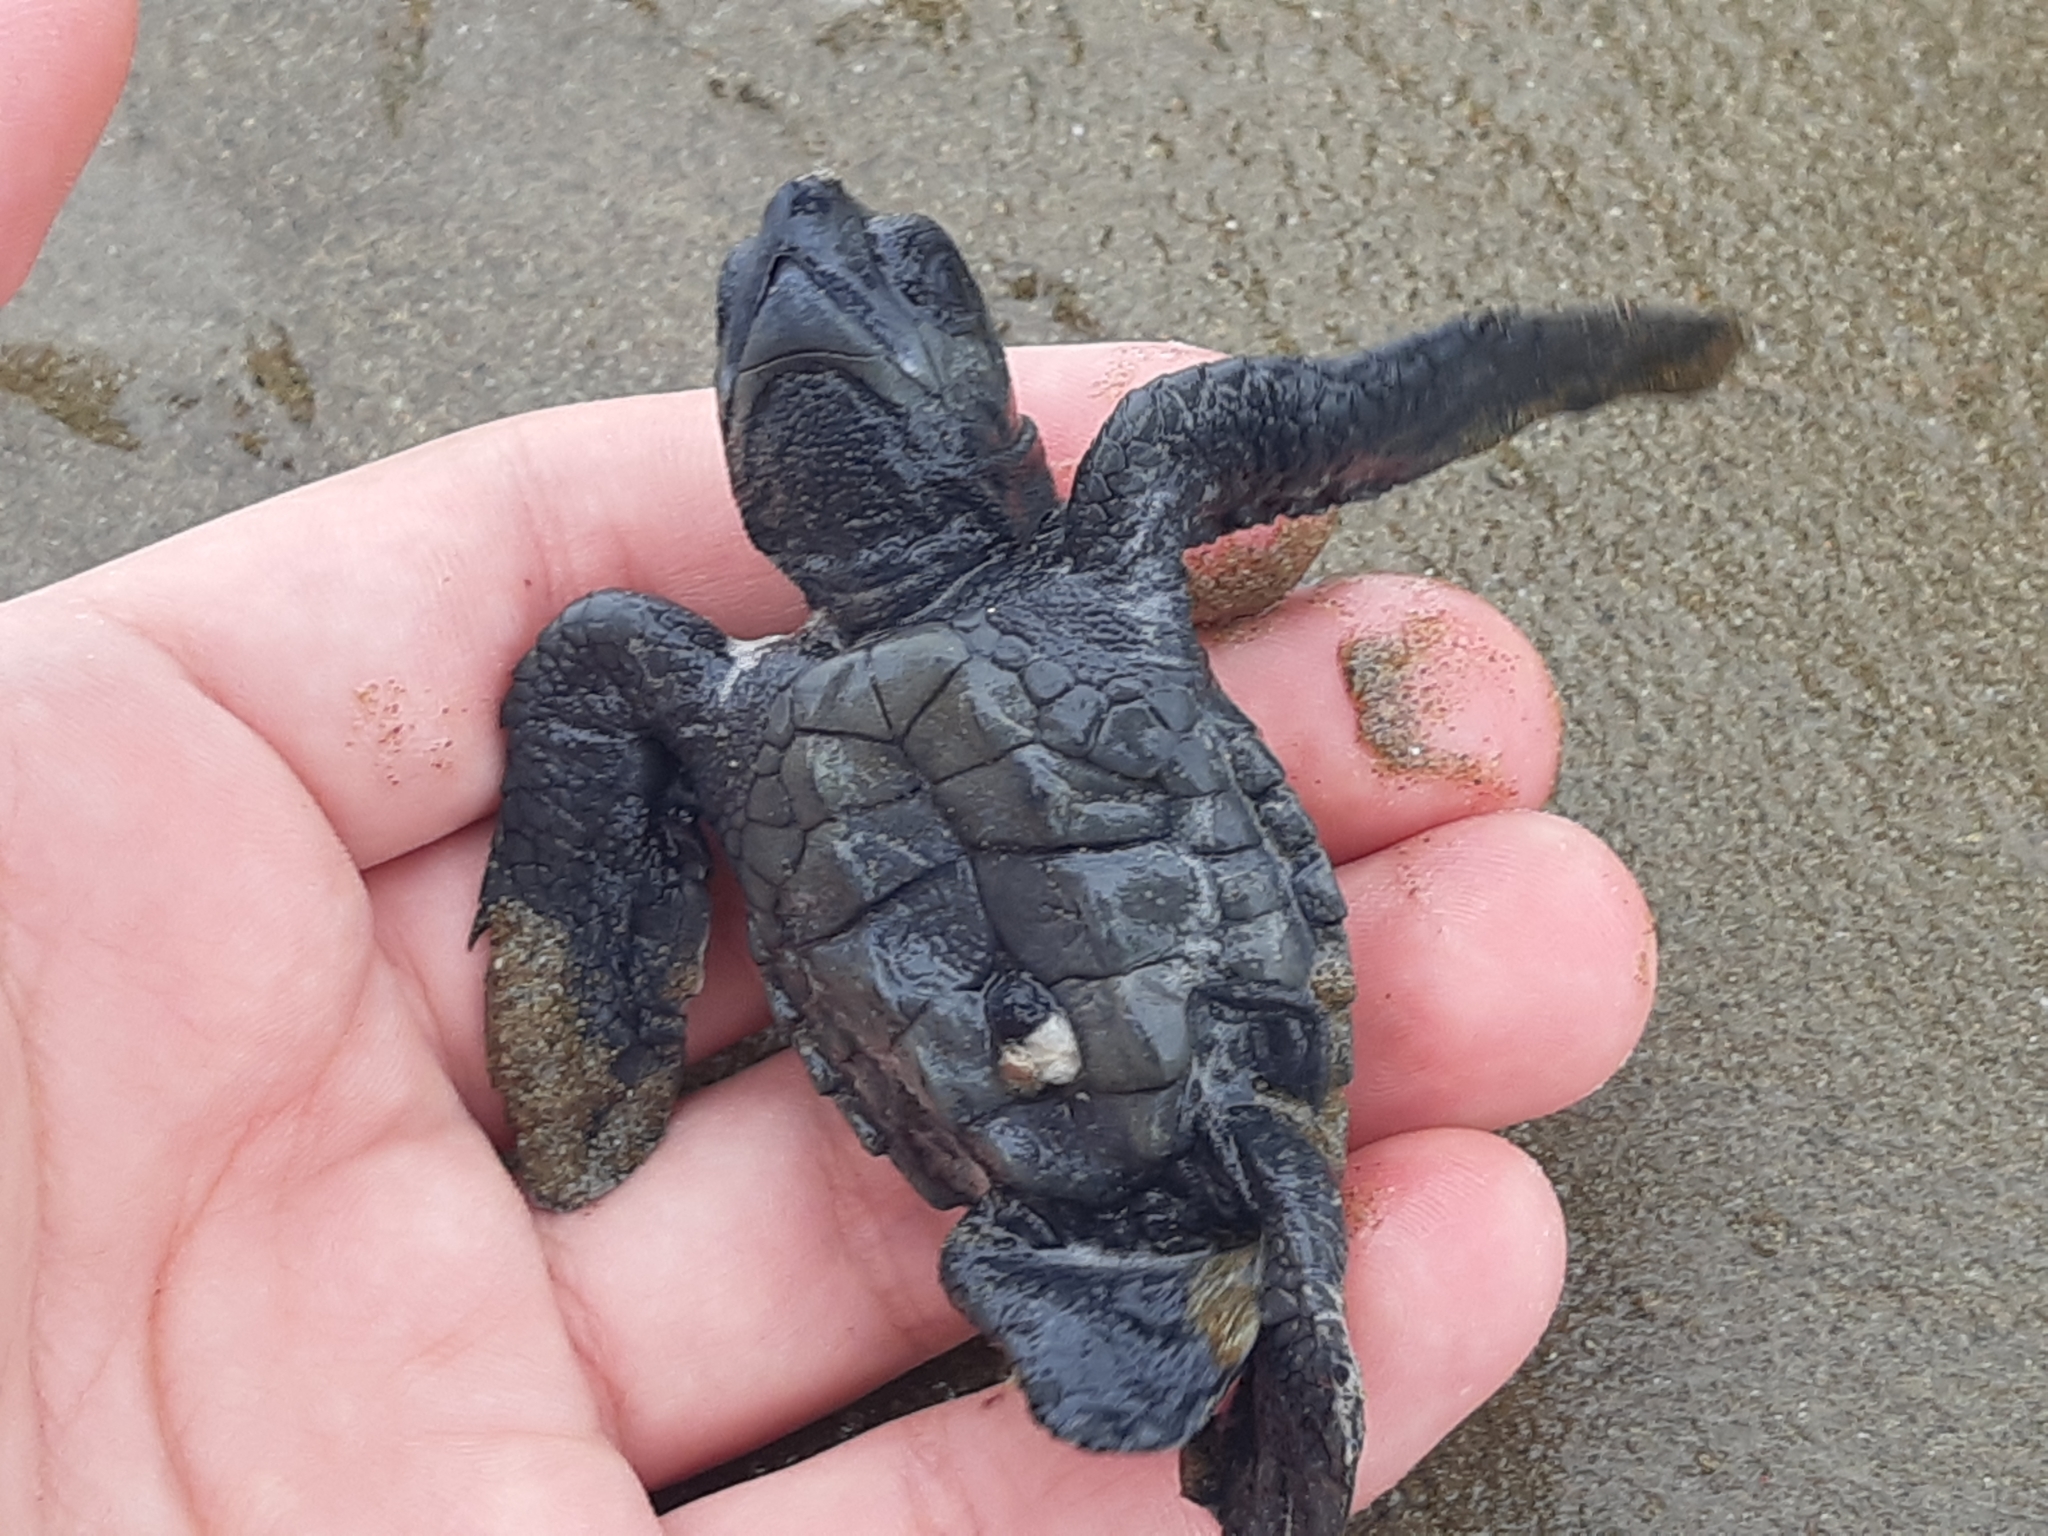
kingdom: Animalia
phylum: Chordata
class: Testudines
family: Cheloniidae
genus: Lepidochelys
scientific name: Lepidochelys olivacea
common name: Olive ridley
